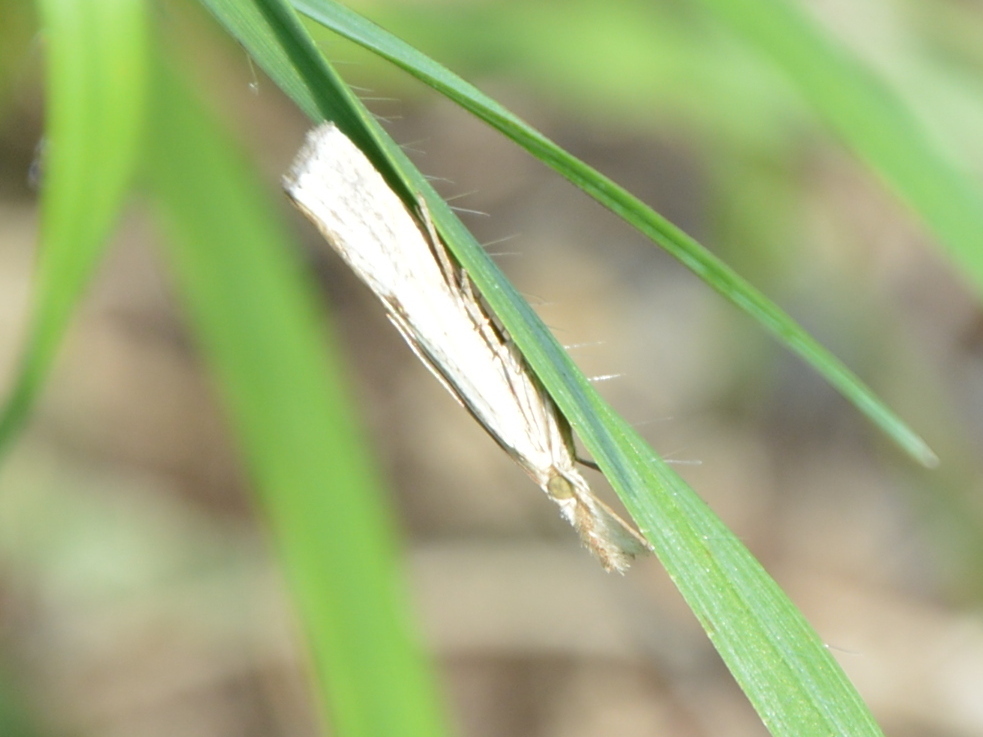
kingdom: Animalia
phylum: Arthropoda
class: Insecta
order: Lepidoptera
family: Crambidae
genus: Agriphila
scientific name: Agriphila inquinatella
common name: Barred grass-veneer
